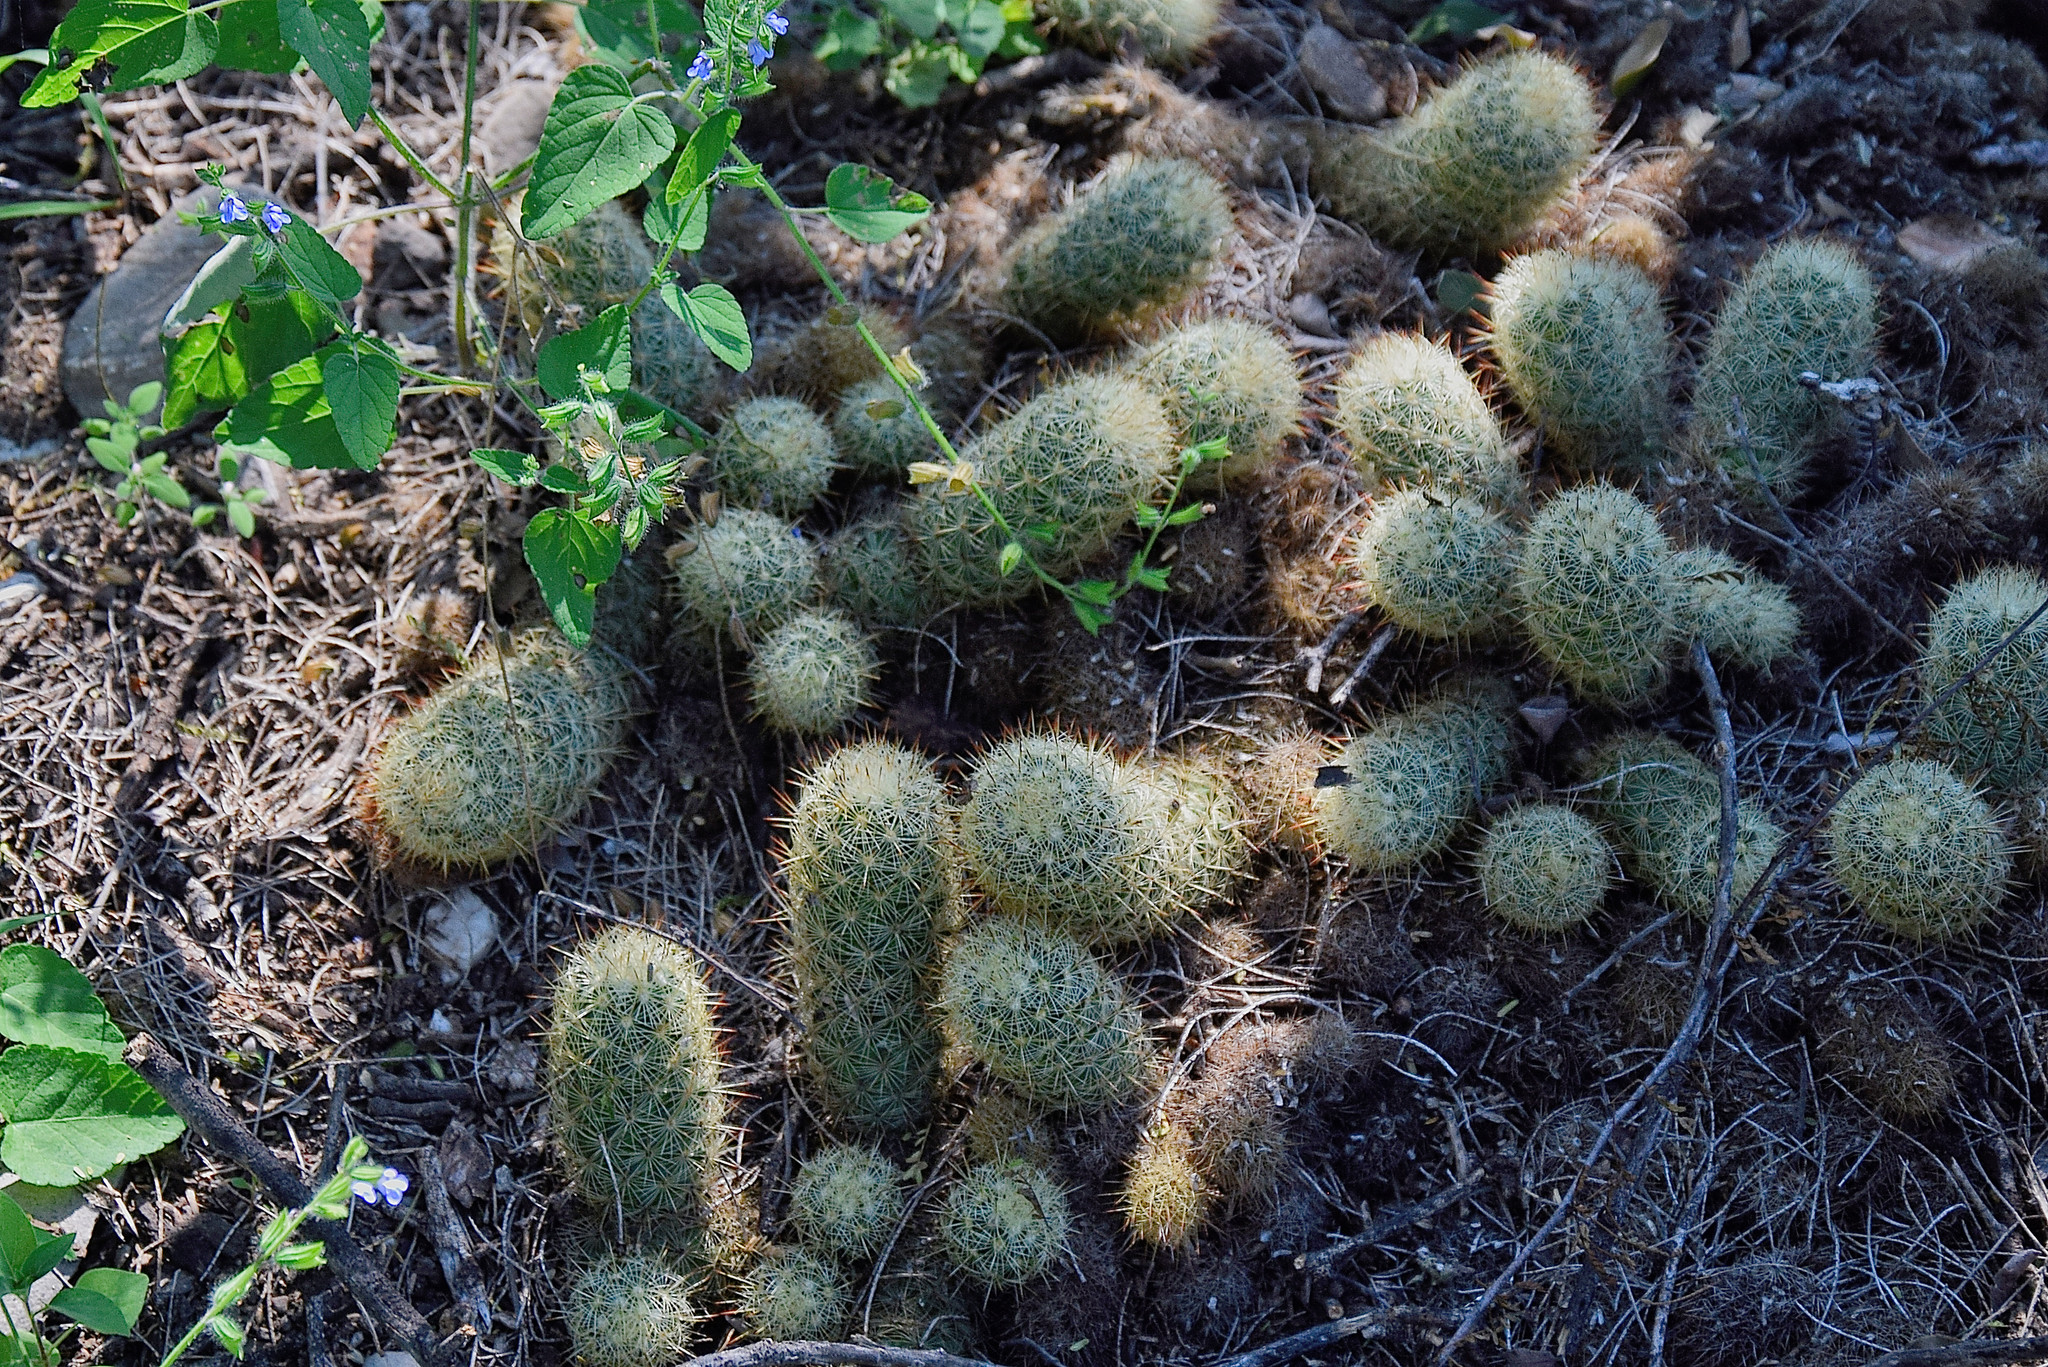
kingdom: Plantae
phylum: Tracheophyta
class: Magnoliopsida
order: Caryophyllales
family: Cactaceae
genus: Mammillaria
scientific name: Mammillaria elongata
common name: Golden star cactus
